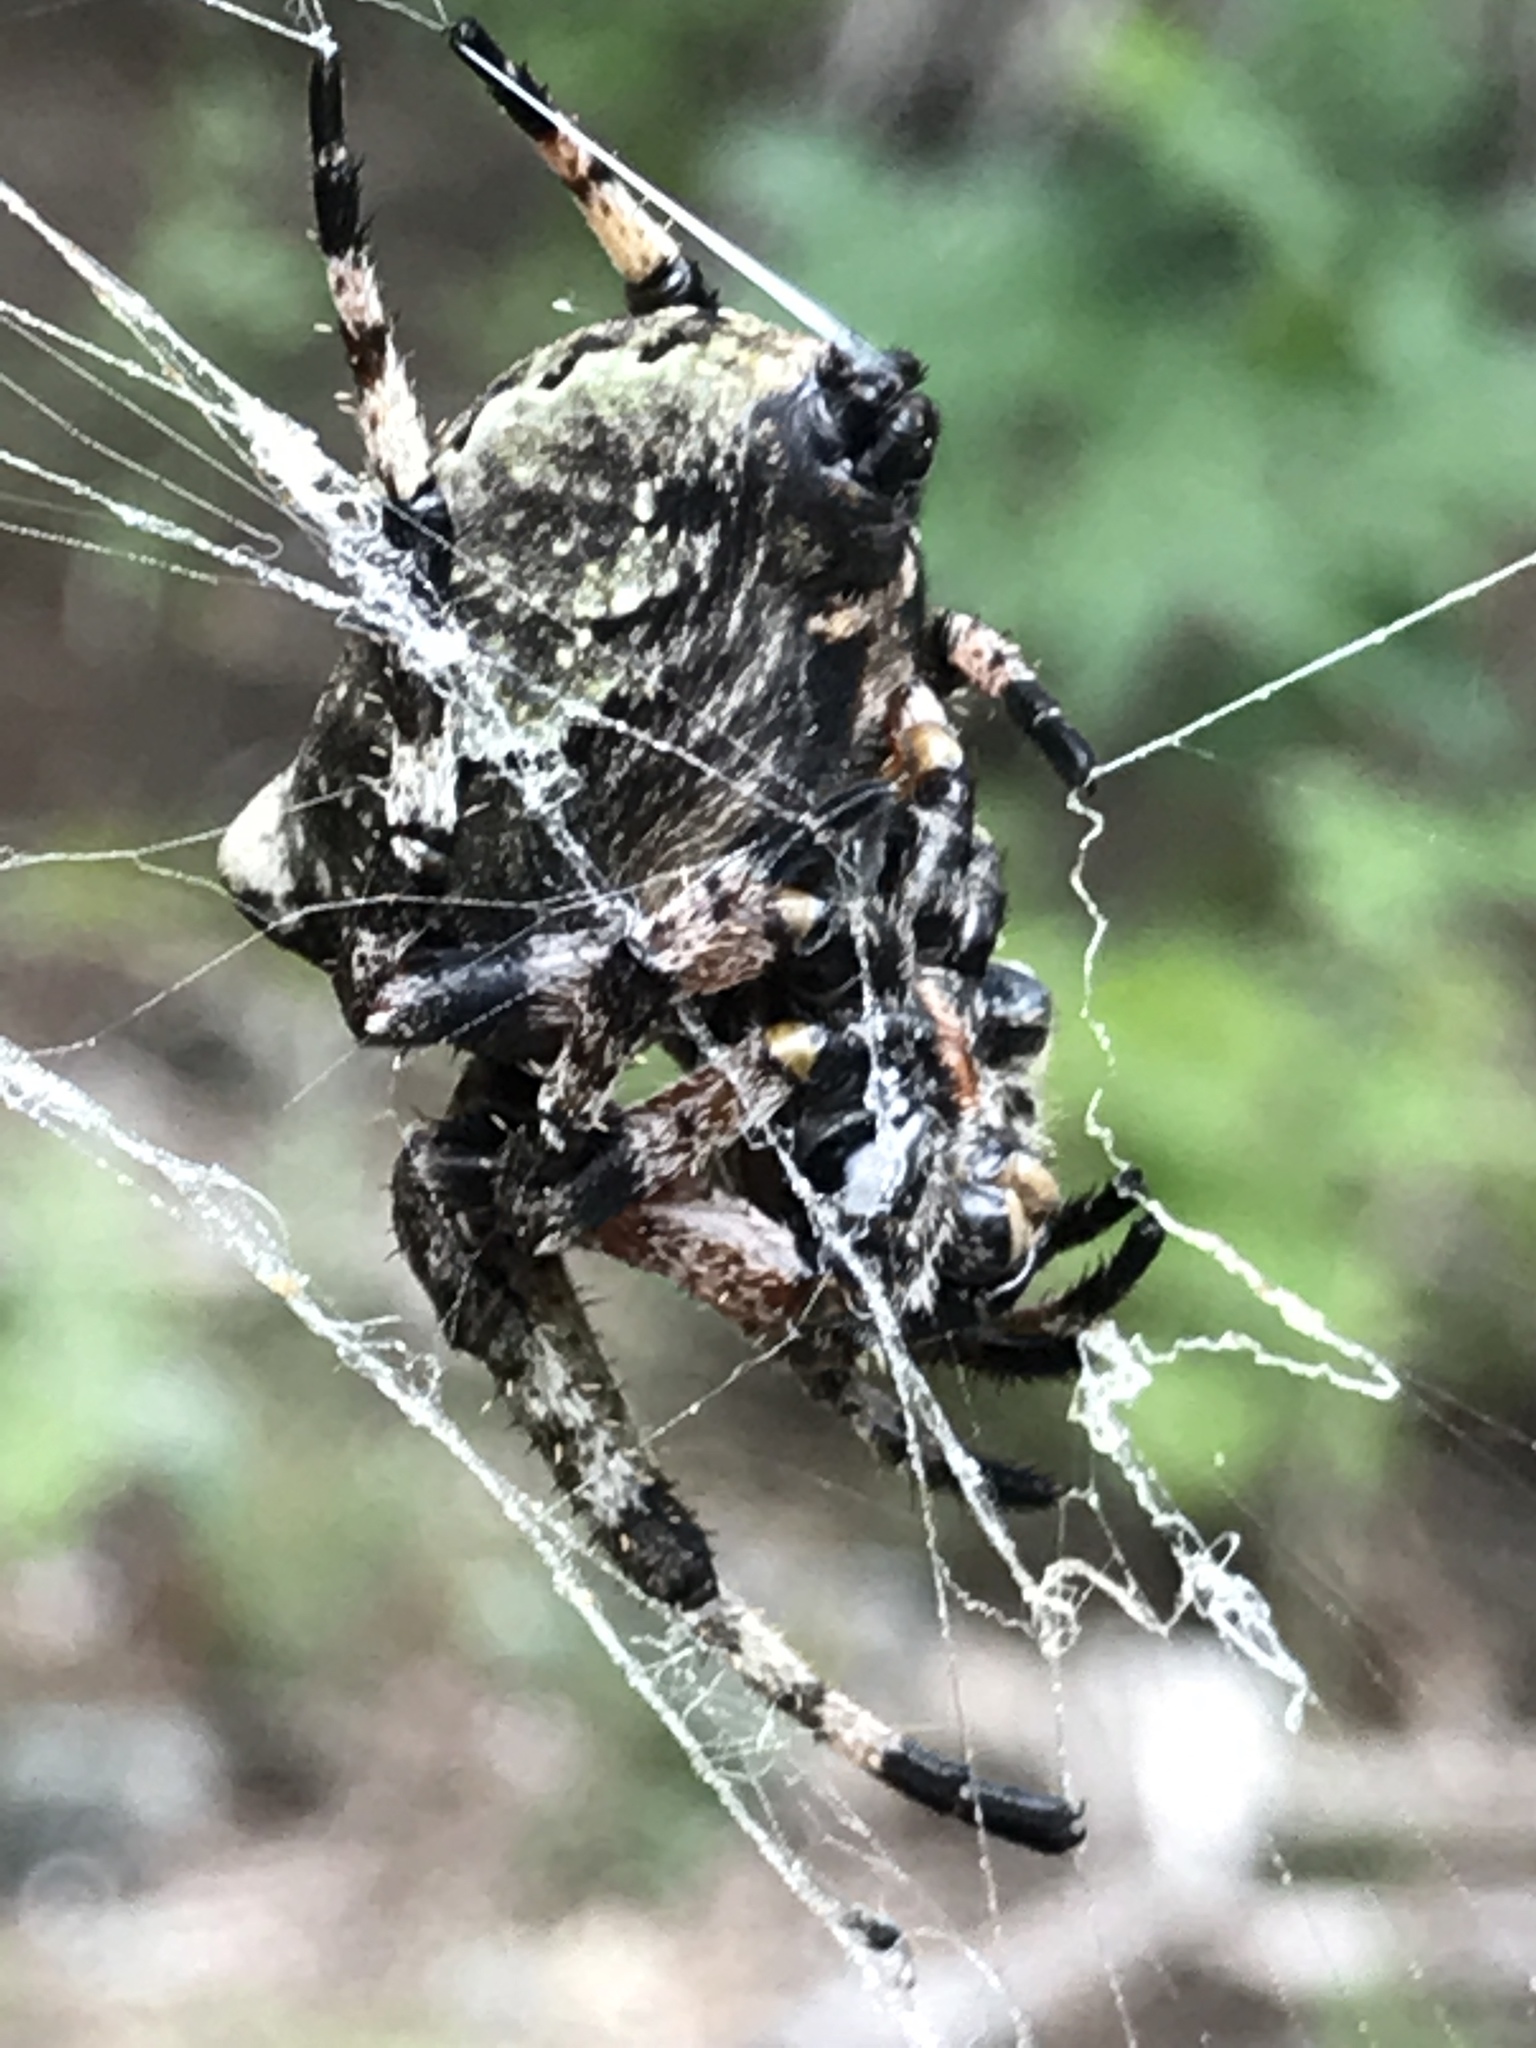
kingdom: Animalia
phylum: Arthropoda
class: Arachnida
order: Araneae
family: Araneidae
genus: Araneus
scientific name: Araneus bicentenarius
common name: Giant lichen orbweaver
